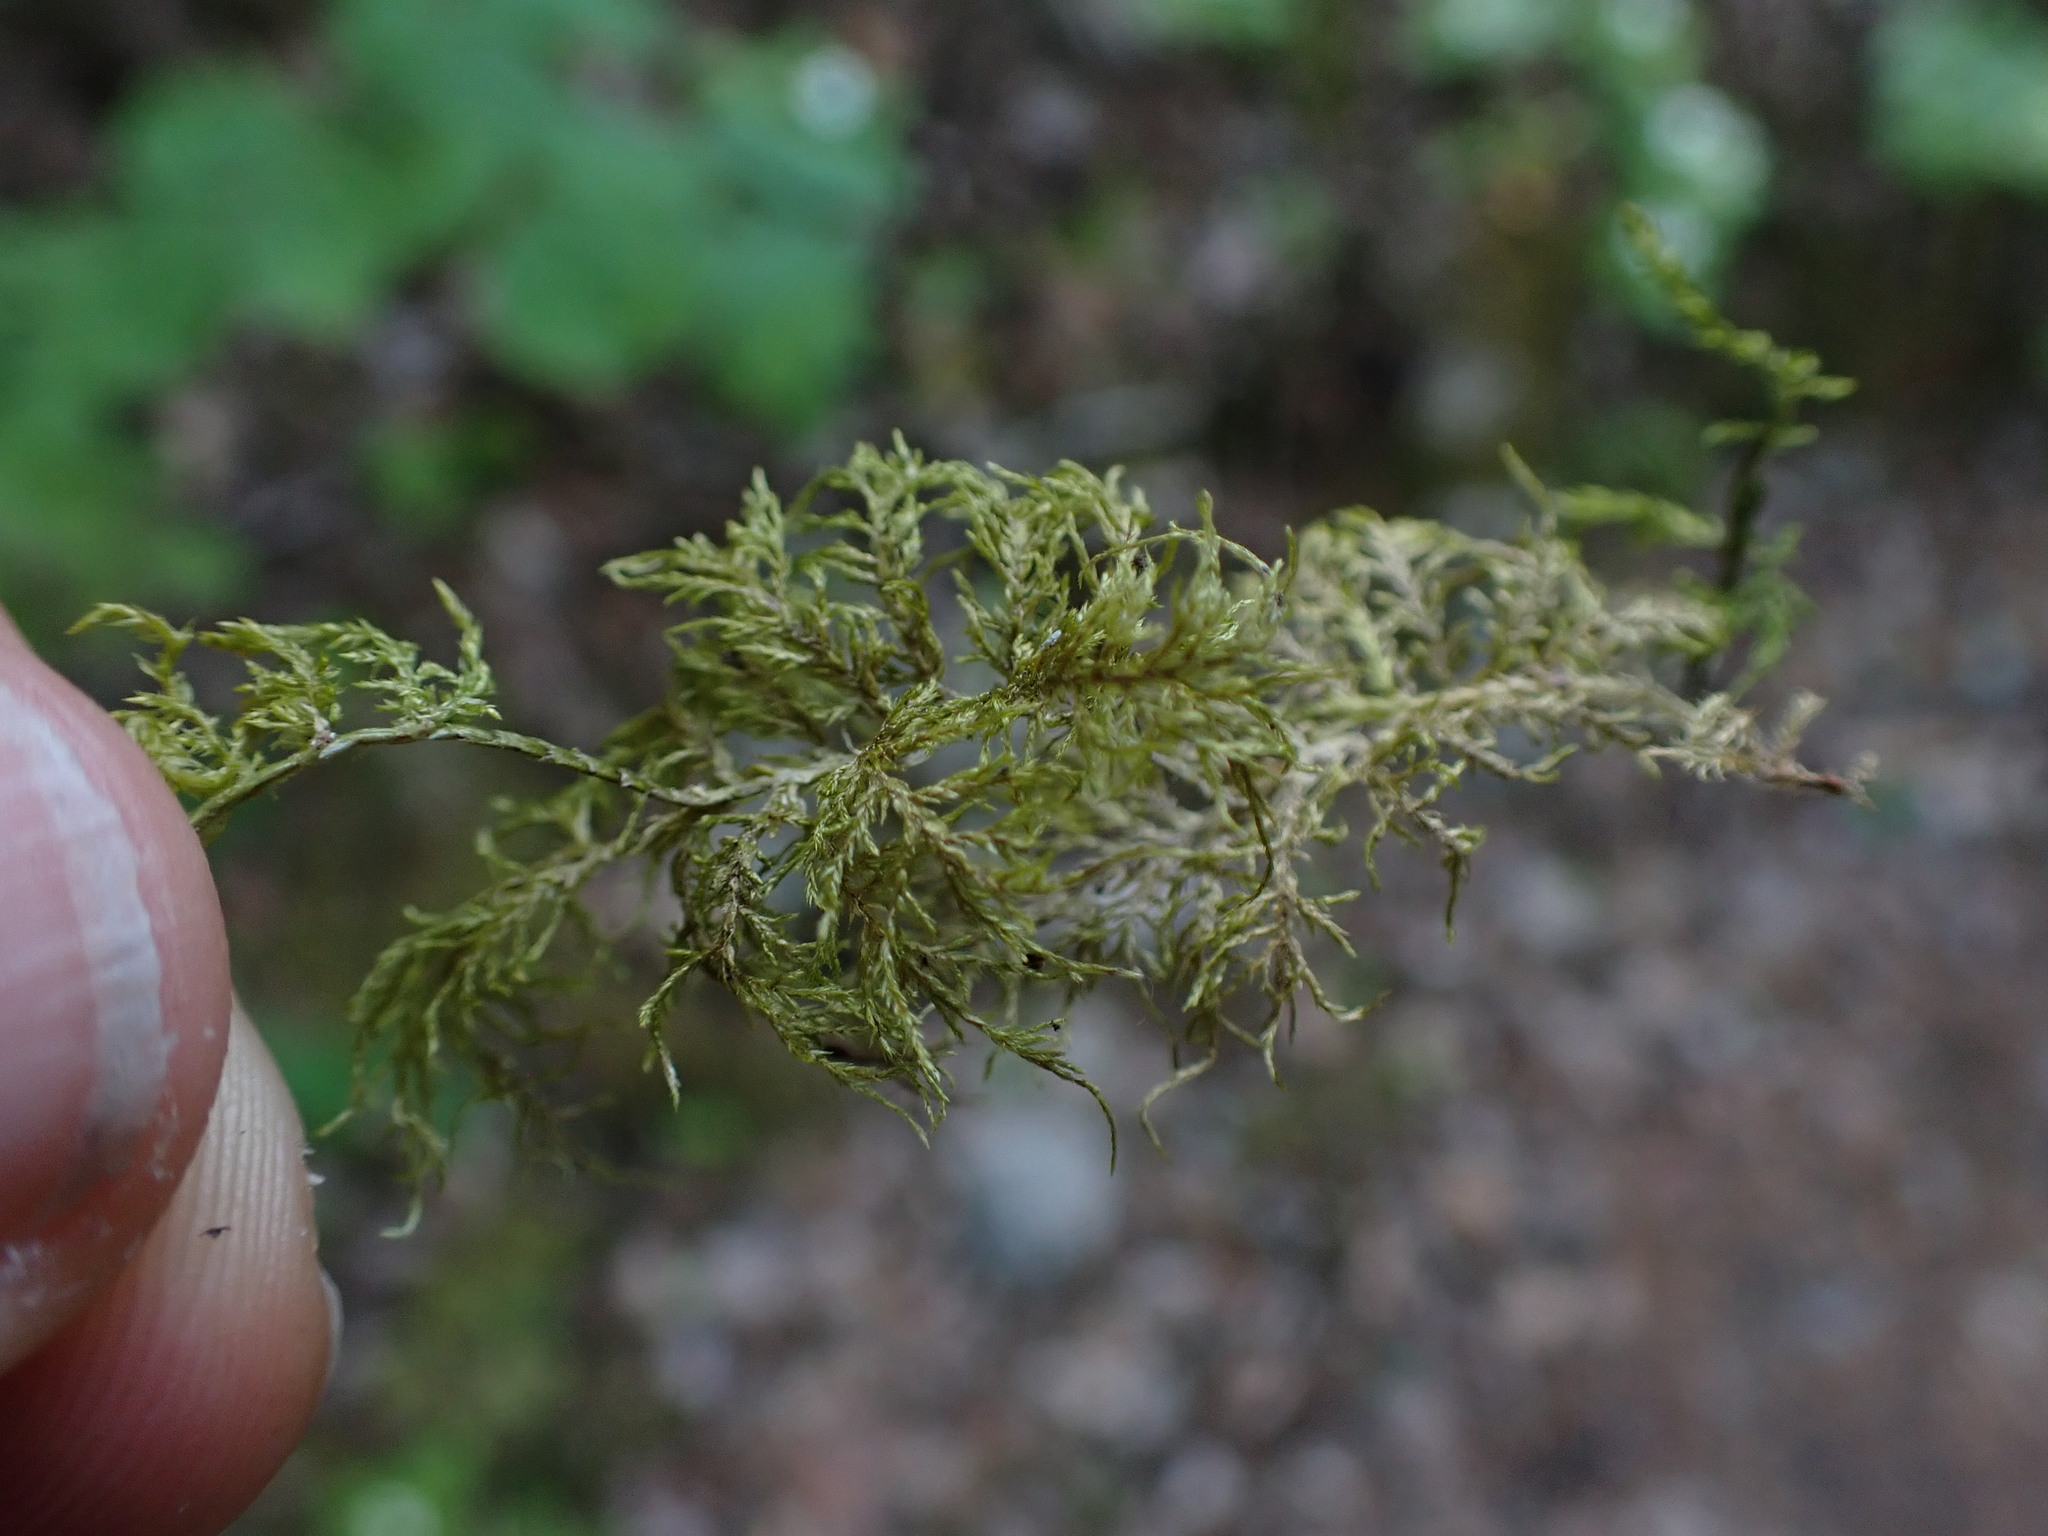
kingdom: Plantae
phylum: Bryophyta
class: Bryopsida
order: Hypnales
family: Hylocomiaceae
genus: Hylocomium
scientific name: Hylocomium splendens
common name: Stairstep moss
